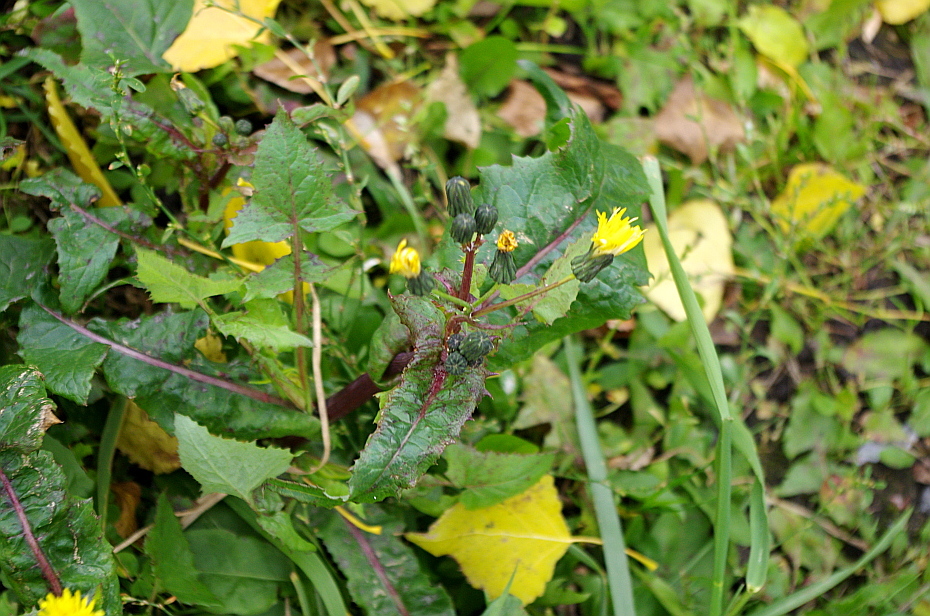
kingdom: Plantae
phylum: Tracheophyta
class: Magnoliopsida
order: Asterales
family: Asteraceae
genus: Sonchus
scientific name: Sonchus oleraceus
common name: Common sowthistle
